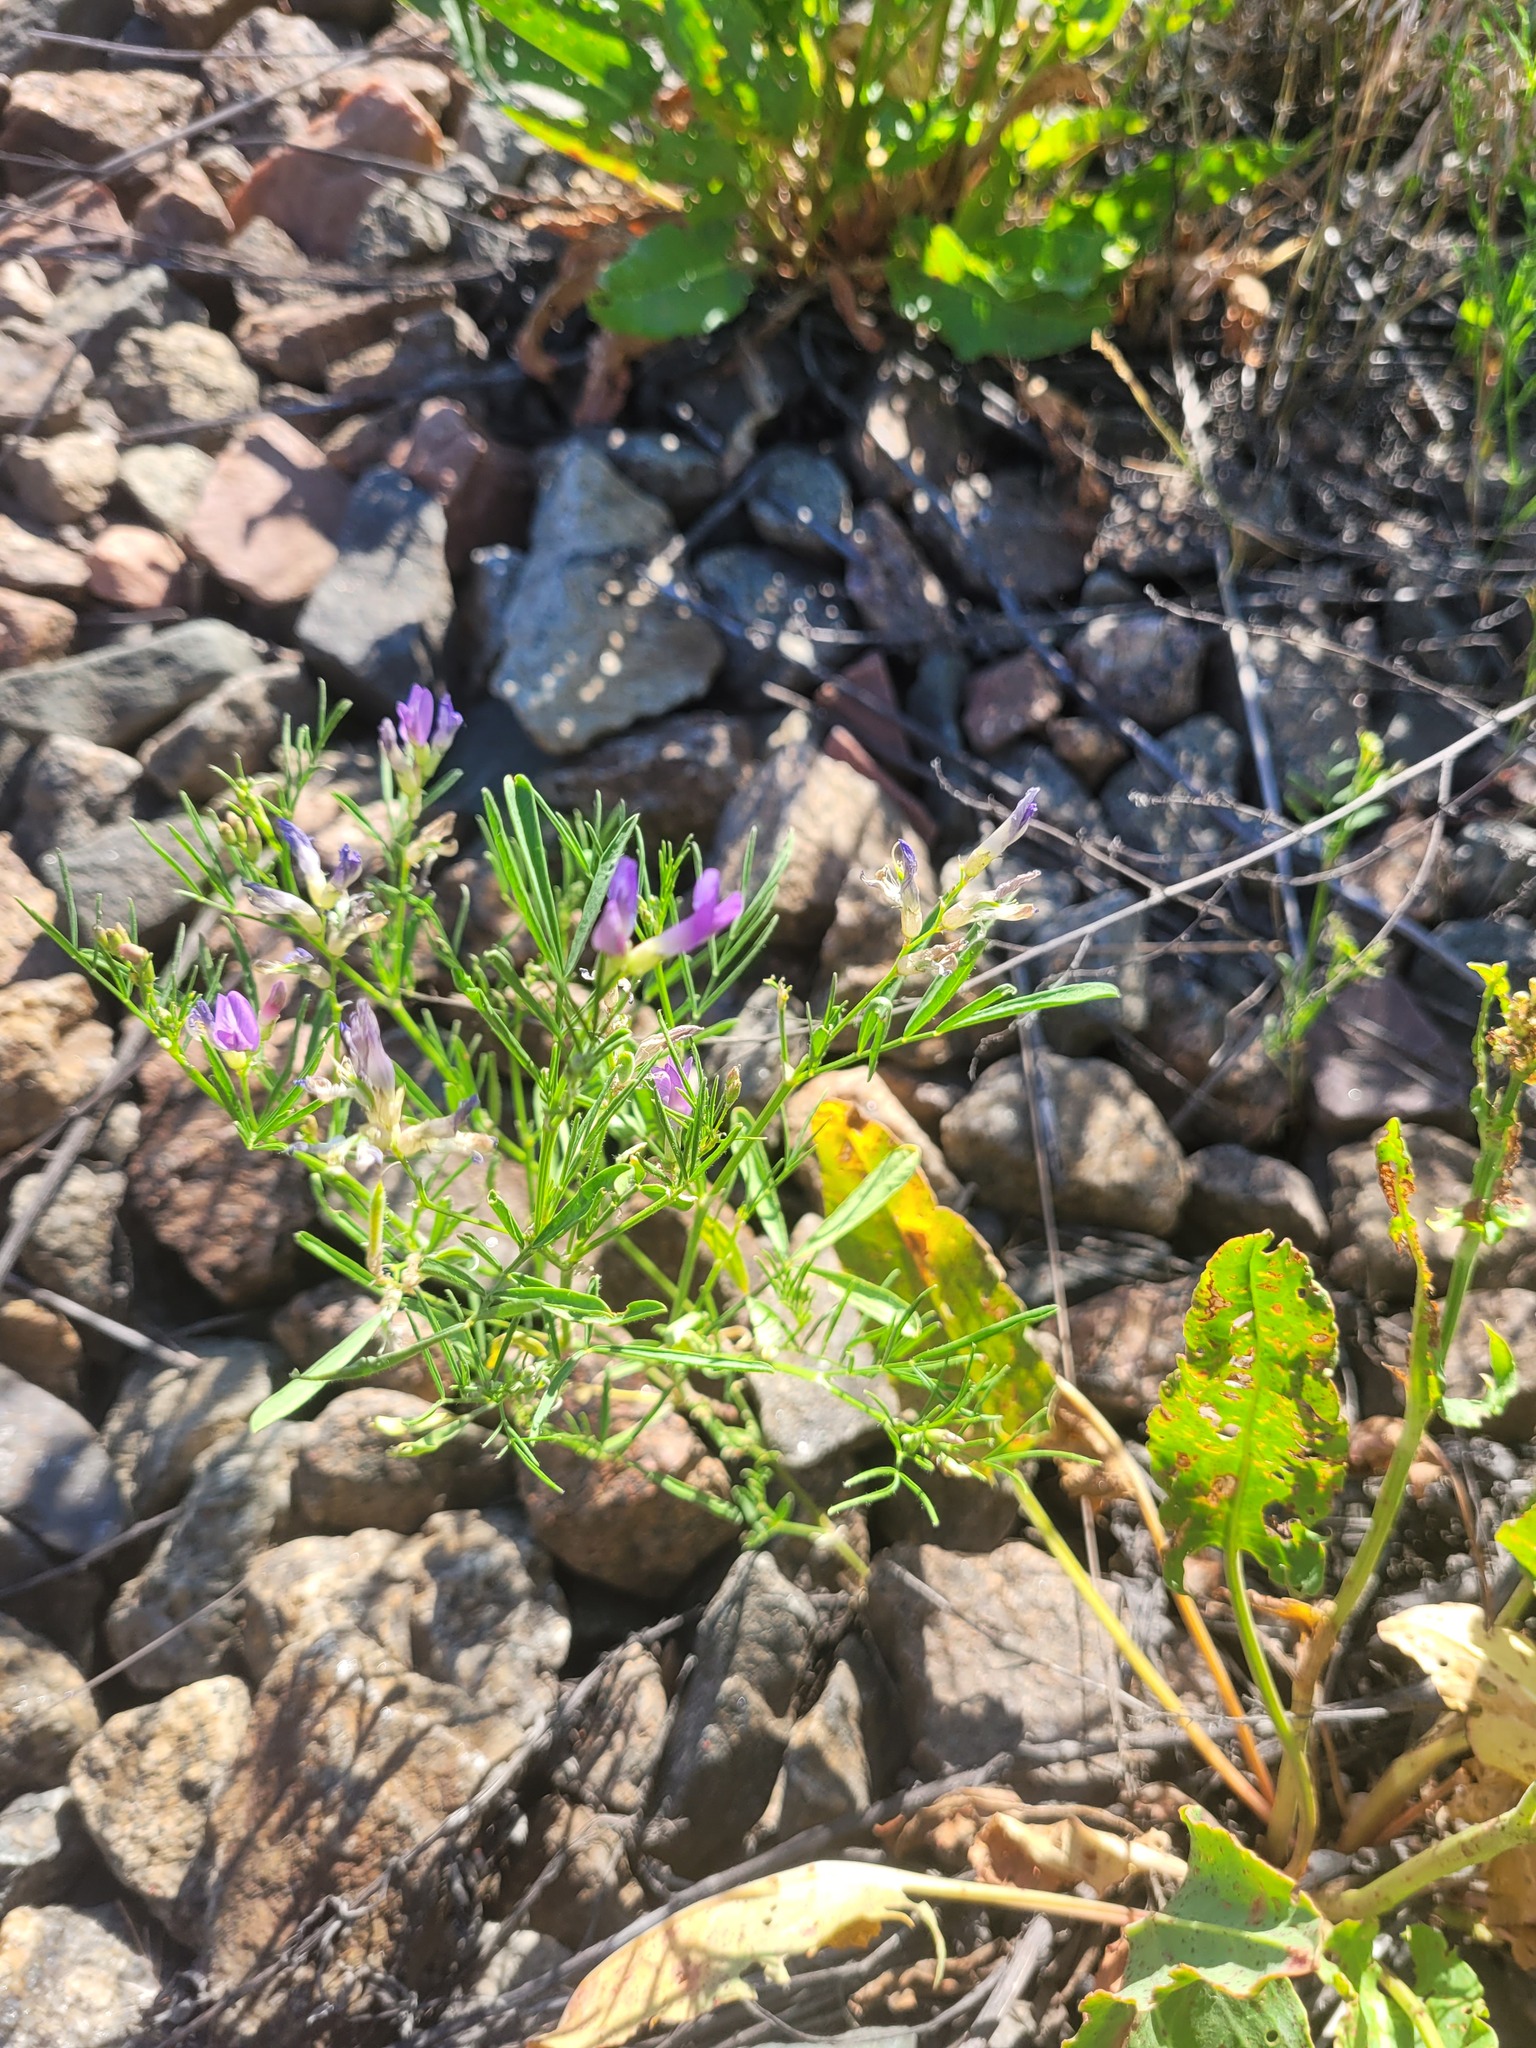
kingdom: Plantae
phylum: Tracheophyta
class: Magnoliopsida
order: Fabales
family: Fabaceae
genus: Astragalus
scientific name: Astragalus arenarius
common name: Arenarious milk-vetch
